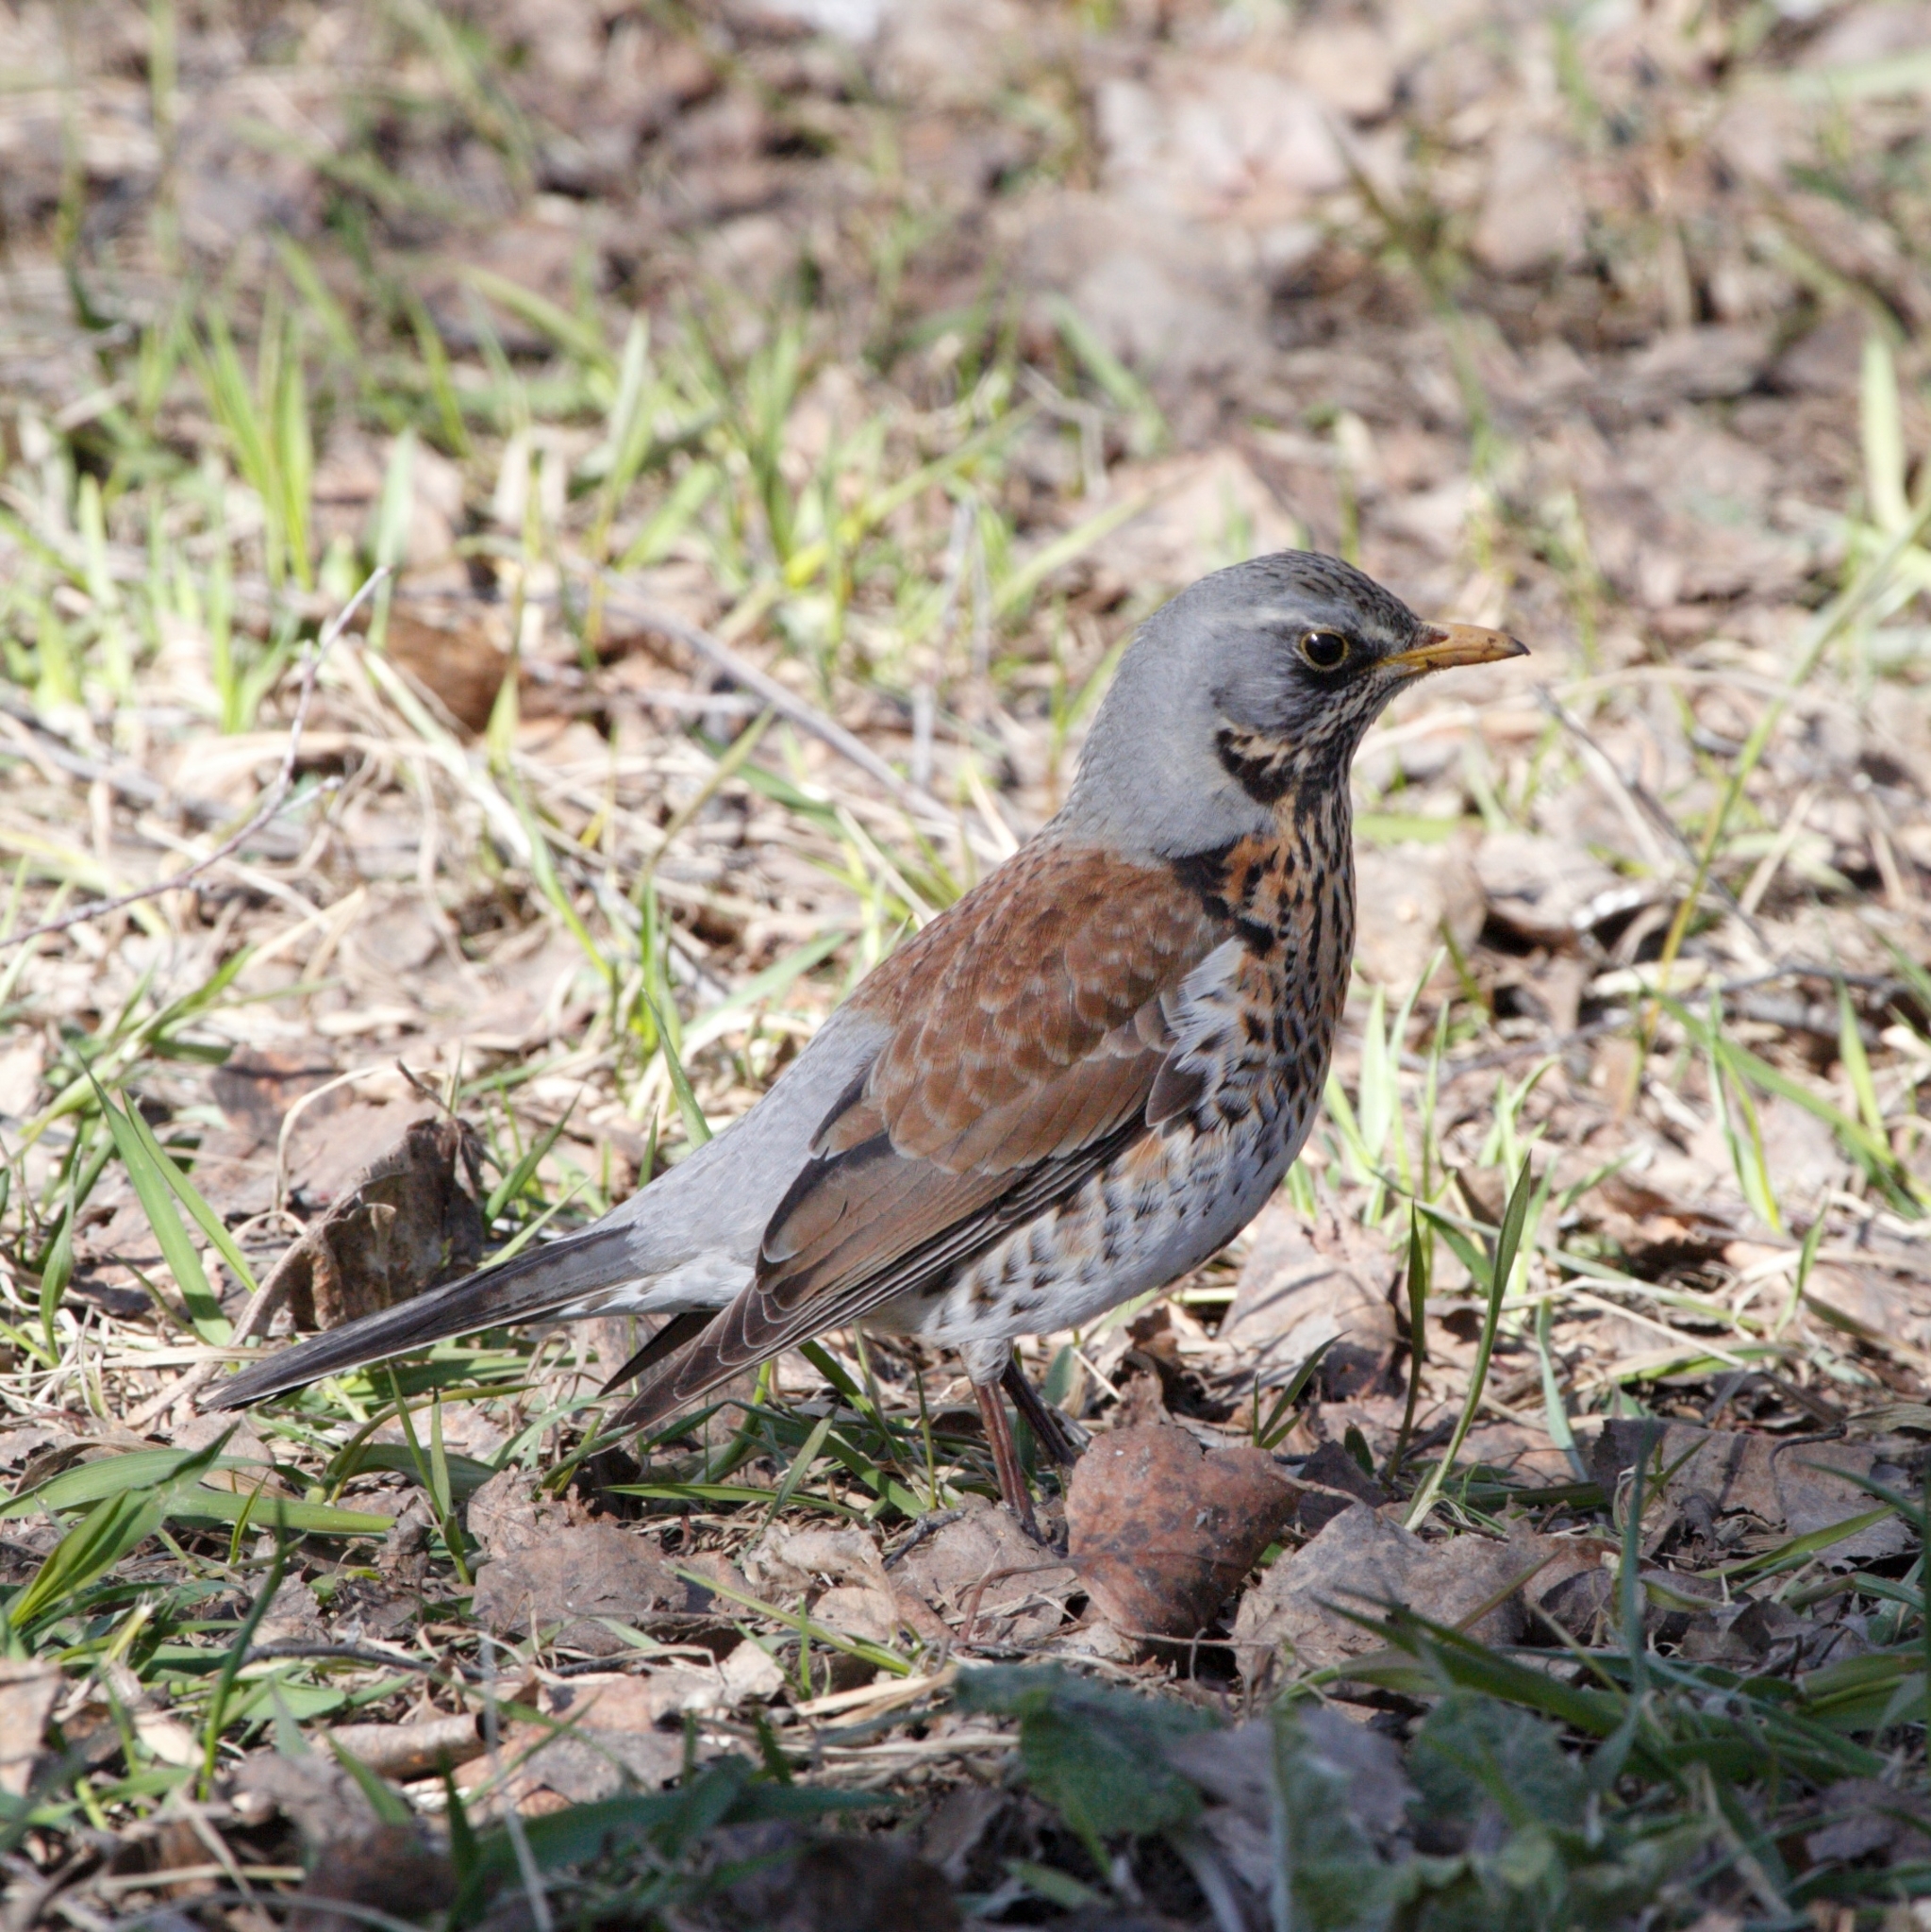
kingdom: Animalia
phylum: Chordata
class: Aves
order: Passeriformes
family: Turdidae
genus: Turdus
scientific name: Turdus pilaris
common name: Fieldfare
